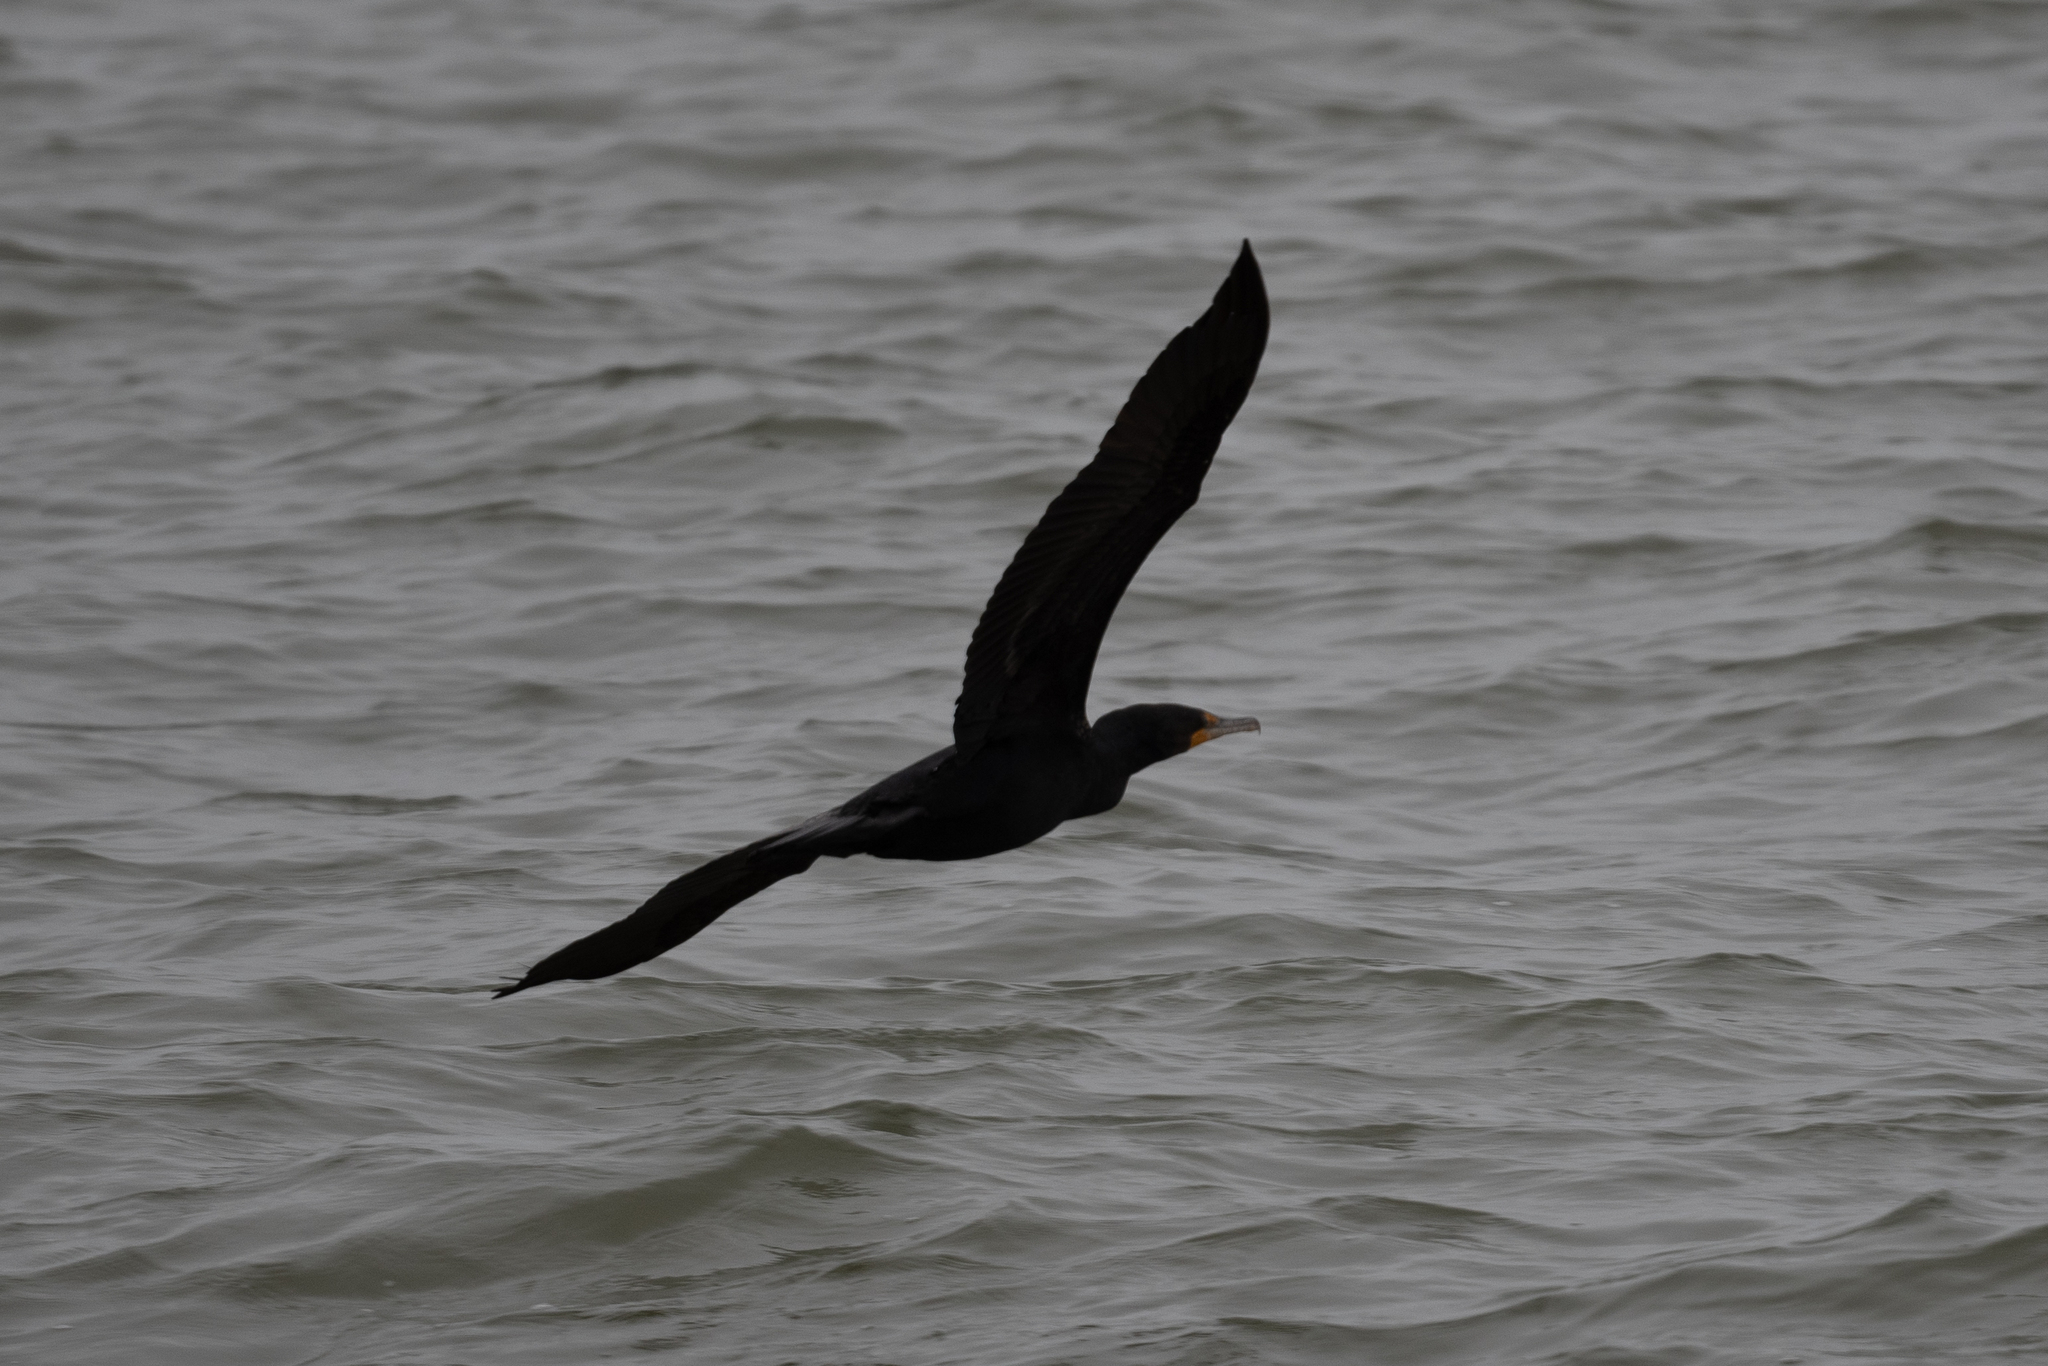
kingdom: Animalia
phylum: Chordata
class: Aves
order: Suliformes
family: Phalacrocoracidae
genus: Phalacrocorax
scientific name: Phalacrocorax auritus
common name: Double-crested cormorant
